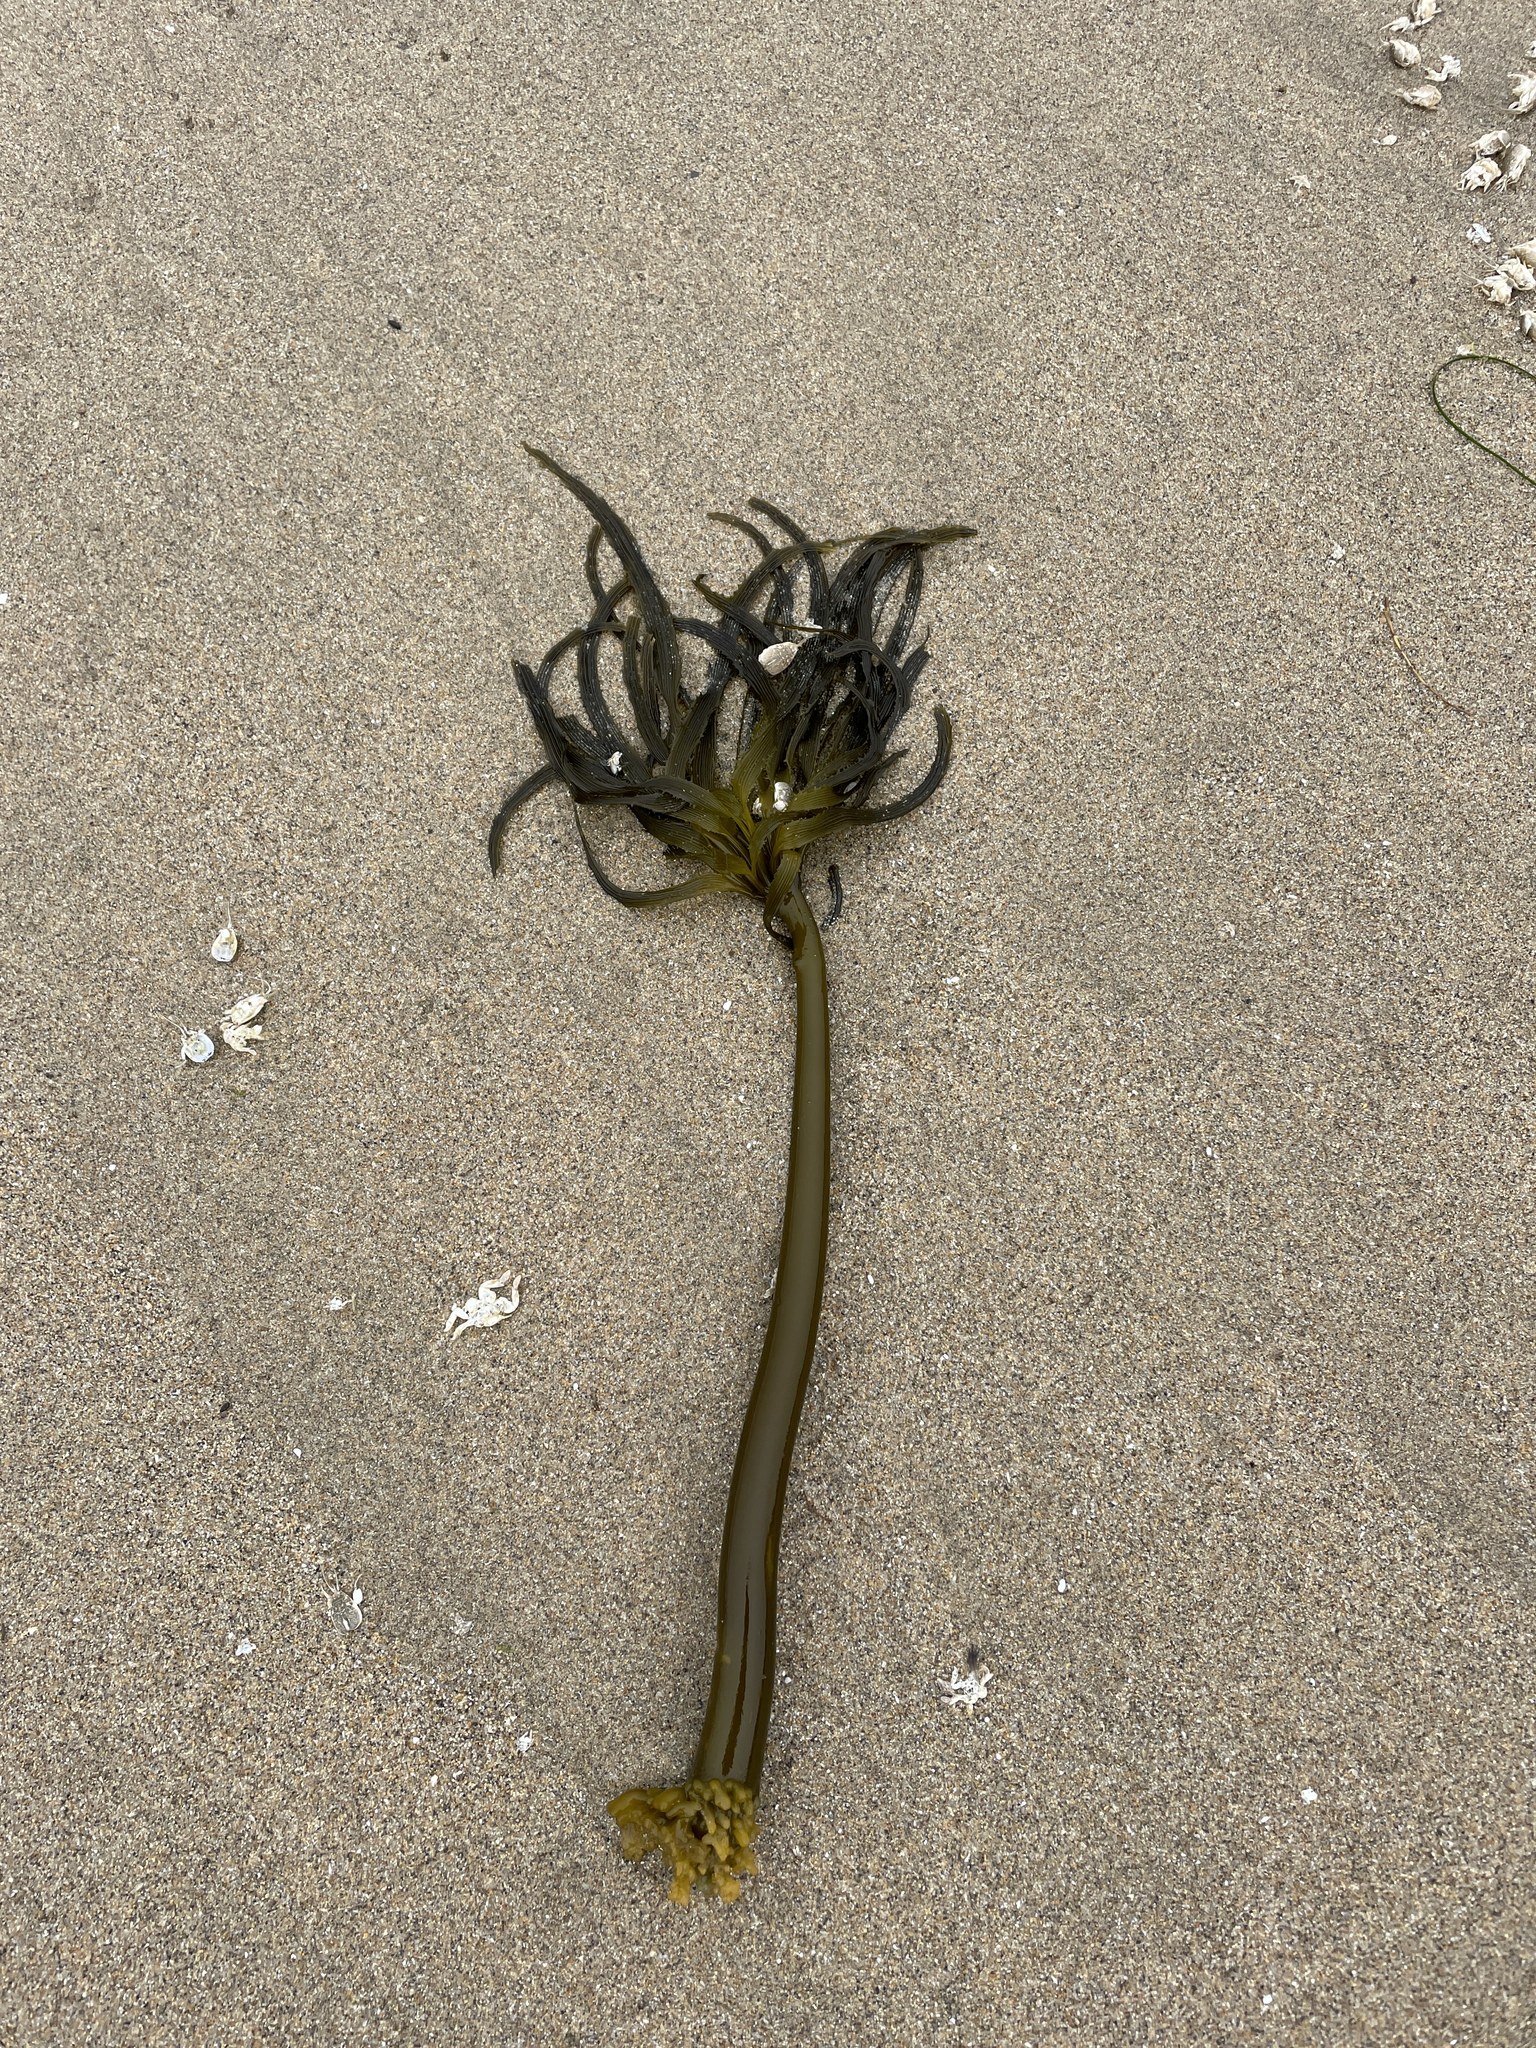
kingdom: Chromista
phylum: Ochrophyta
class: Phaeophyceae
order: Laminariales
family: Laminariaceae
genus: Postelsia
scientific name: Postelsia palmiformis
